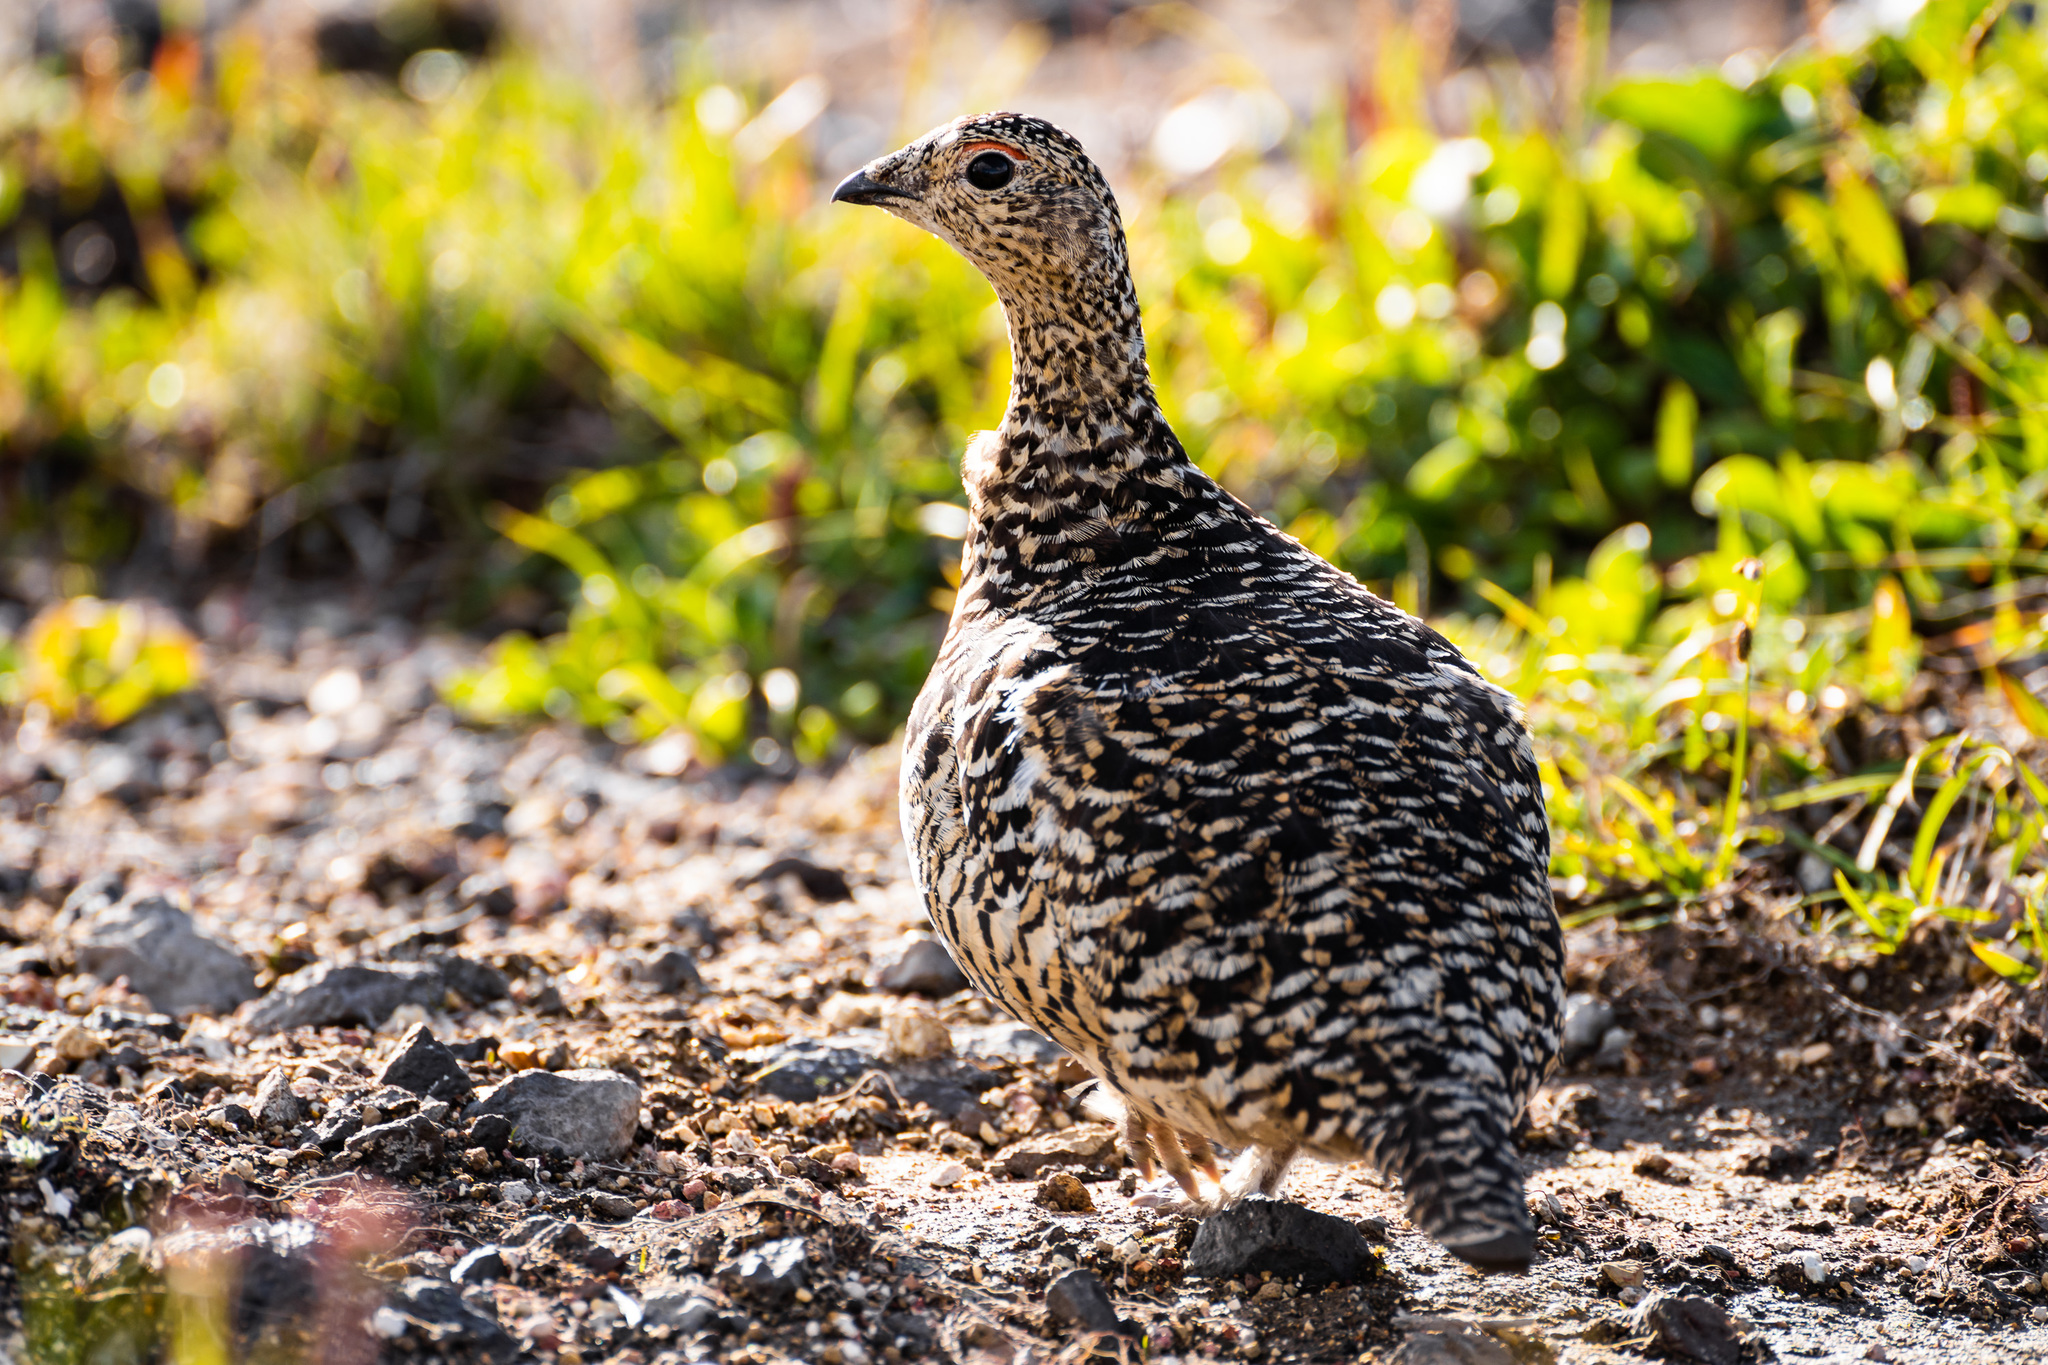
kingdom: Animalia
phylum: Chordata
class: Aves
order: Galliformes
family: Phasianidae
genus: Lagopus
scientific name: Lagopus lagopus
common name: Willow ptarmigan
